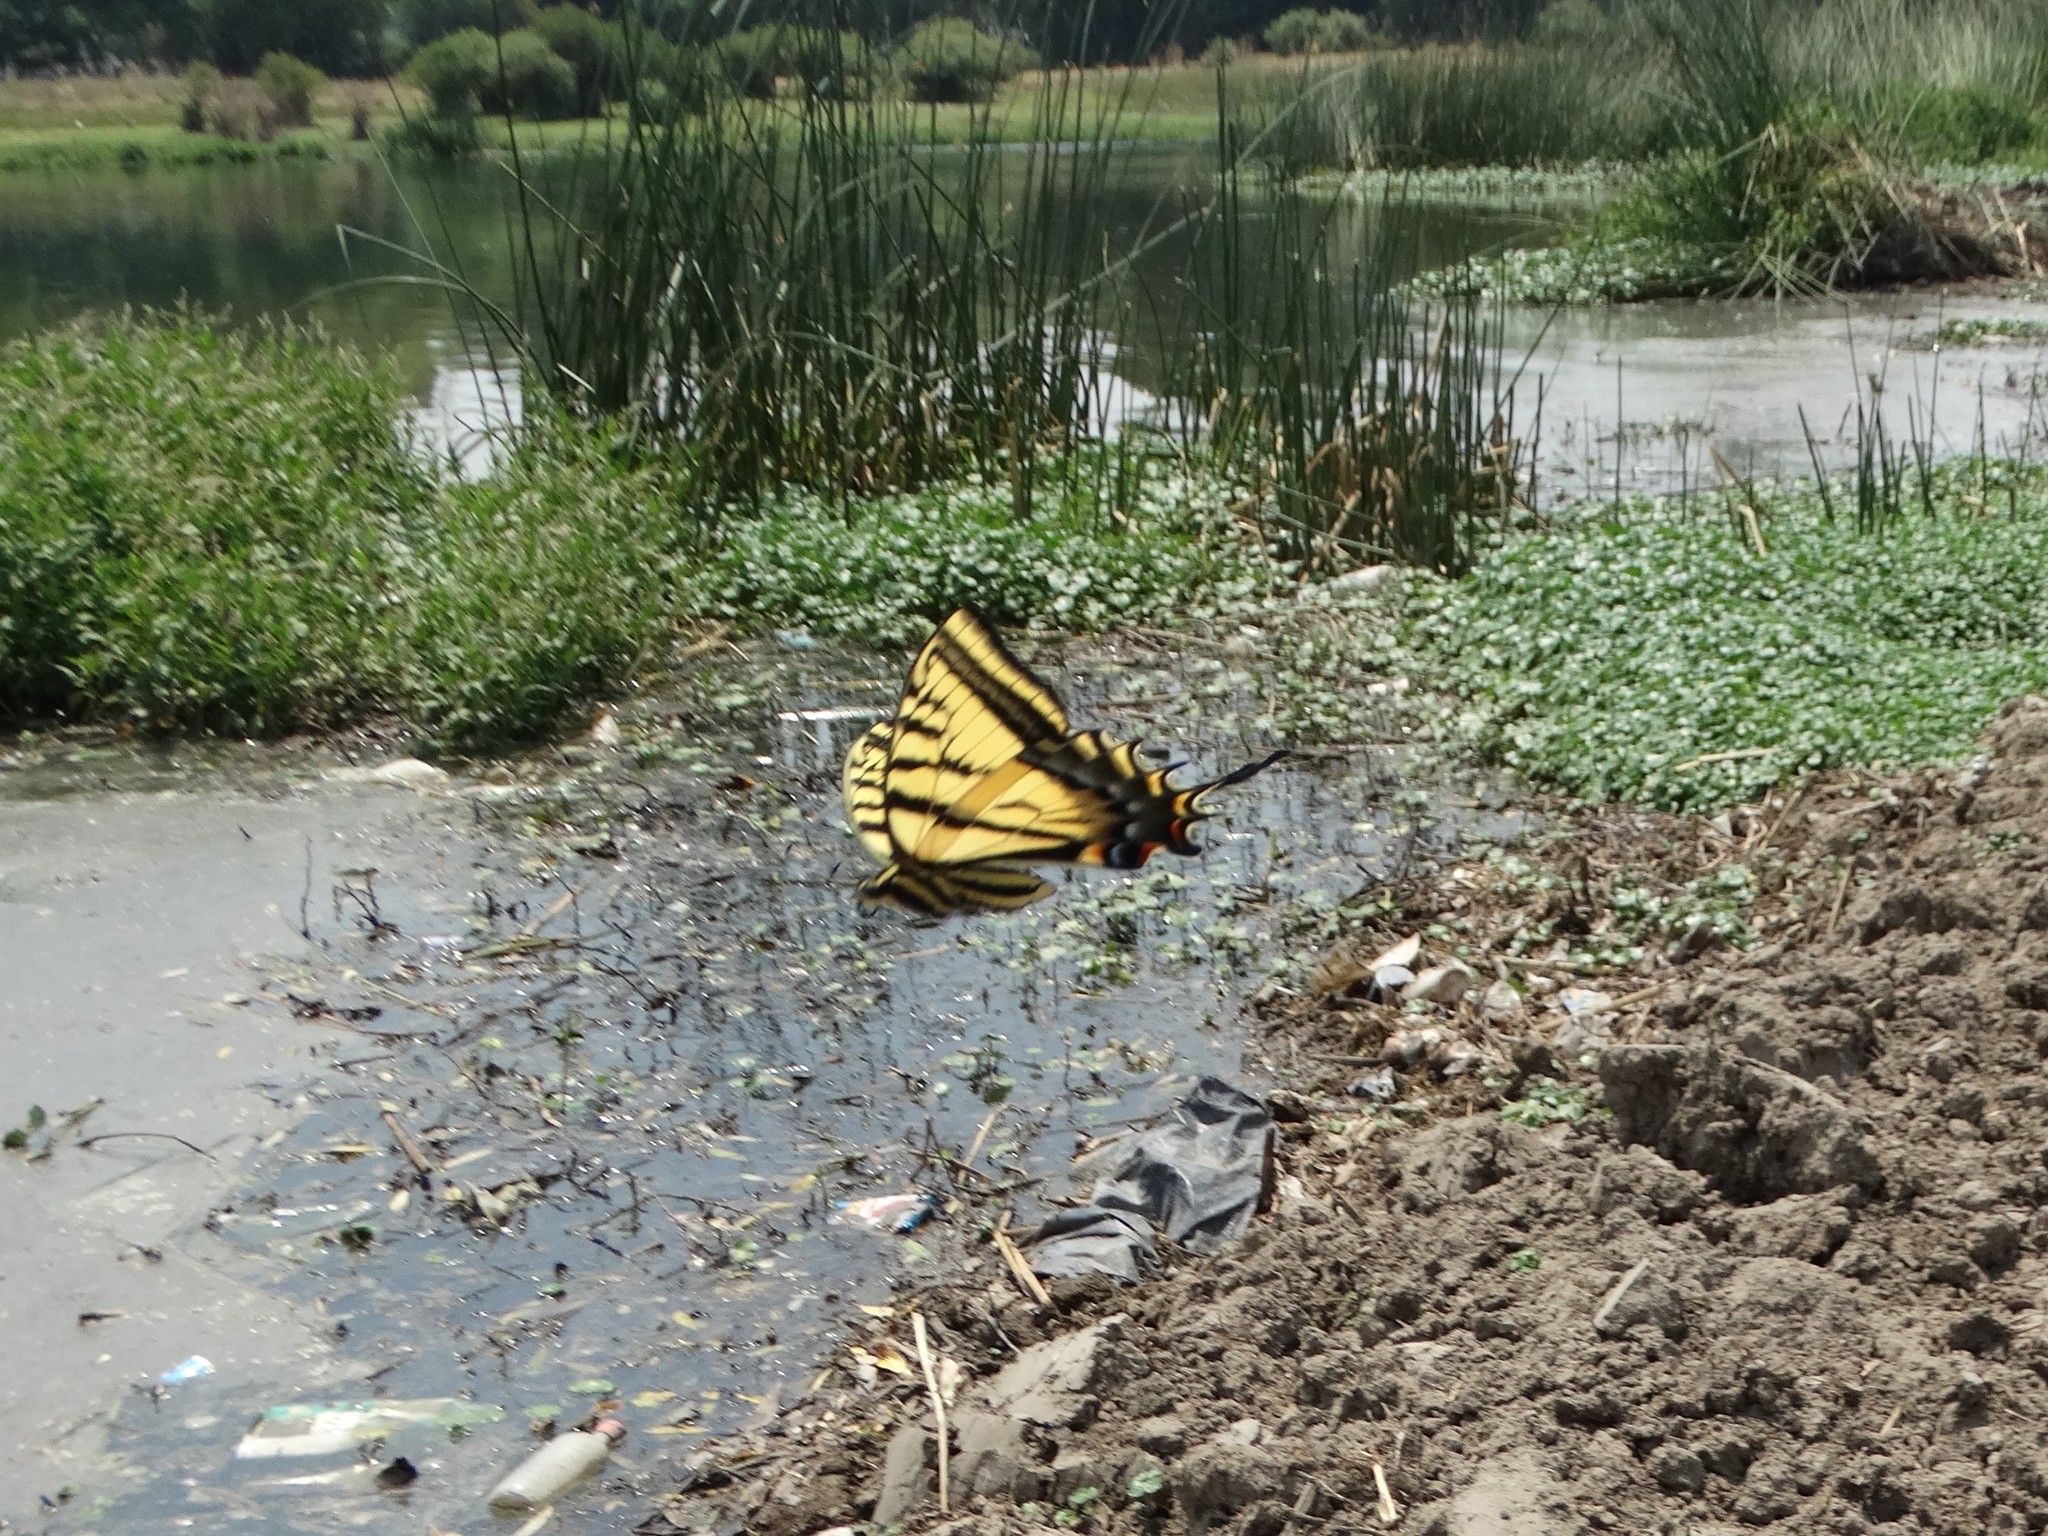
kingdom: Animalia
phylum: Arthropoda
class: Insecta
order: Lepidoptera
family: Papilionidae
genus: Papilio
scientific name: Papilio multicaudata
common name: Two-tailed tiger swallowtail
